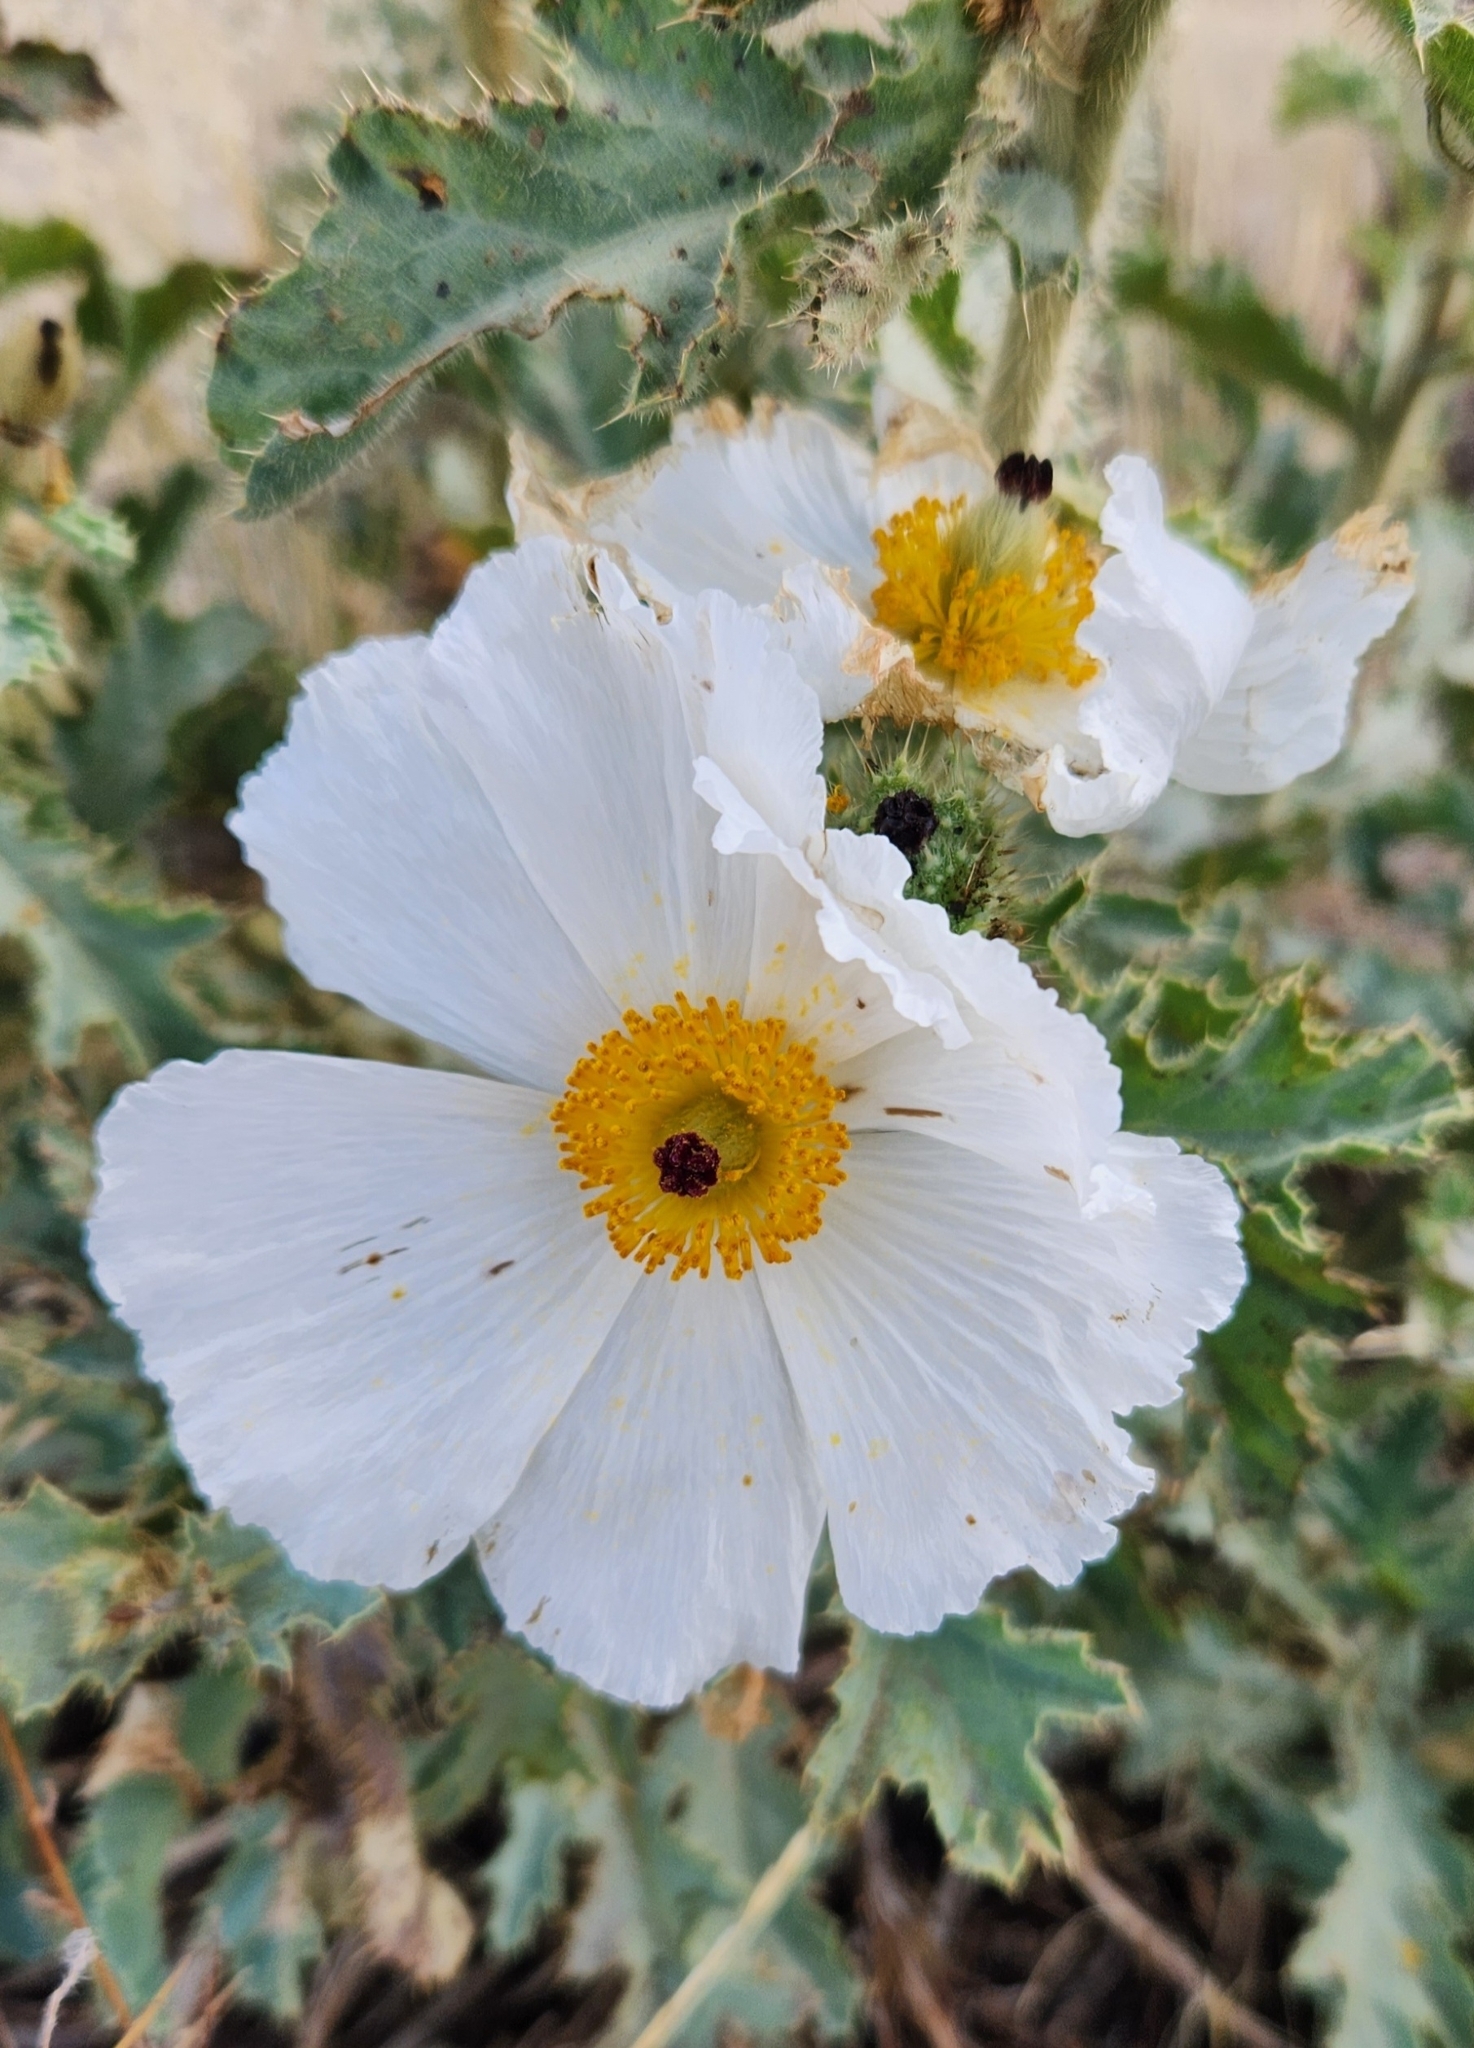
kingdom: Plantae
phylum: Tracheophyta
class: Magnoliopsida
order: Ranunculales
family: Papaveraceae
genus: Argemone
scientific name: Argemone munita
